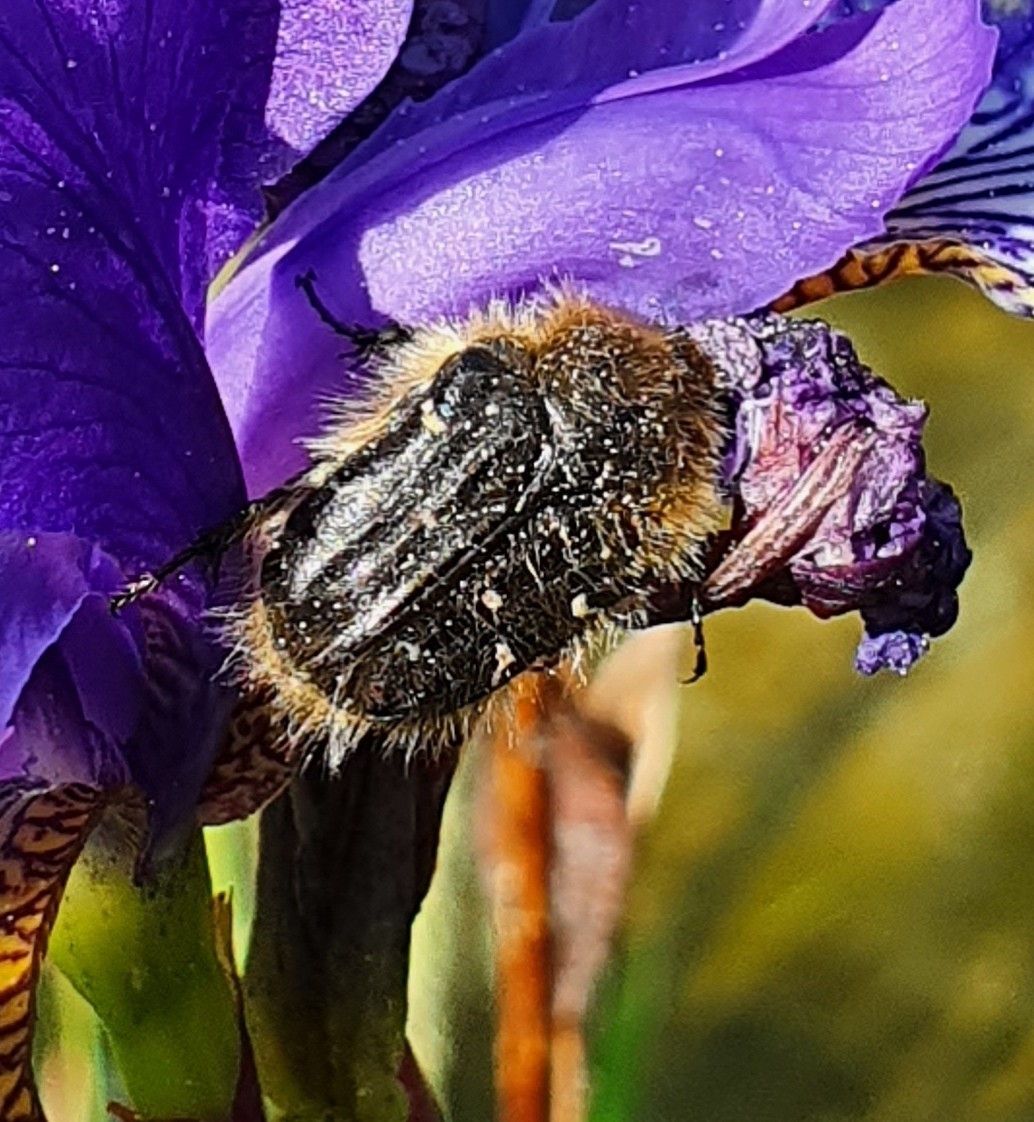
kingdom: Animalia
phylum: Arthropoda
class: Insecta
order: Coleoptera
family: Scarabaeidae
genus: Tropinota
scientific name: Tropinota hirta
